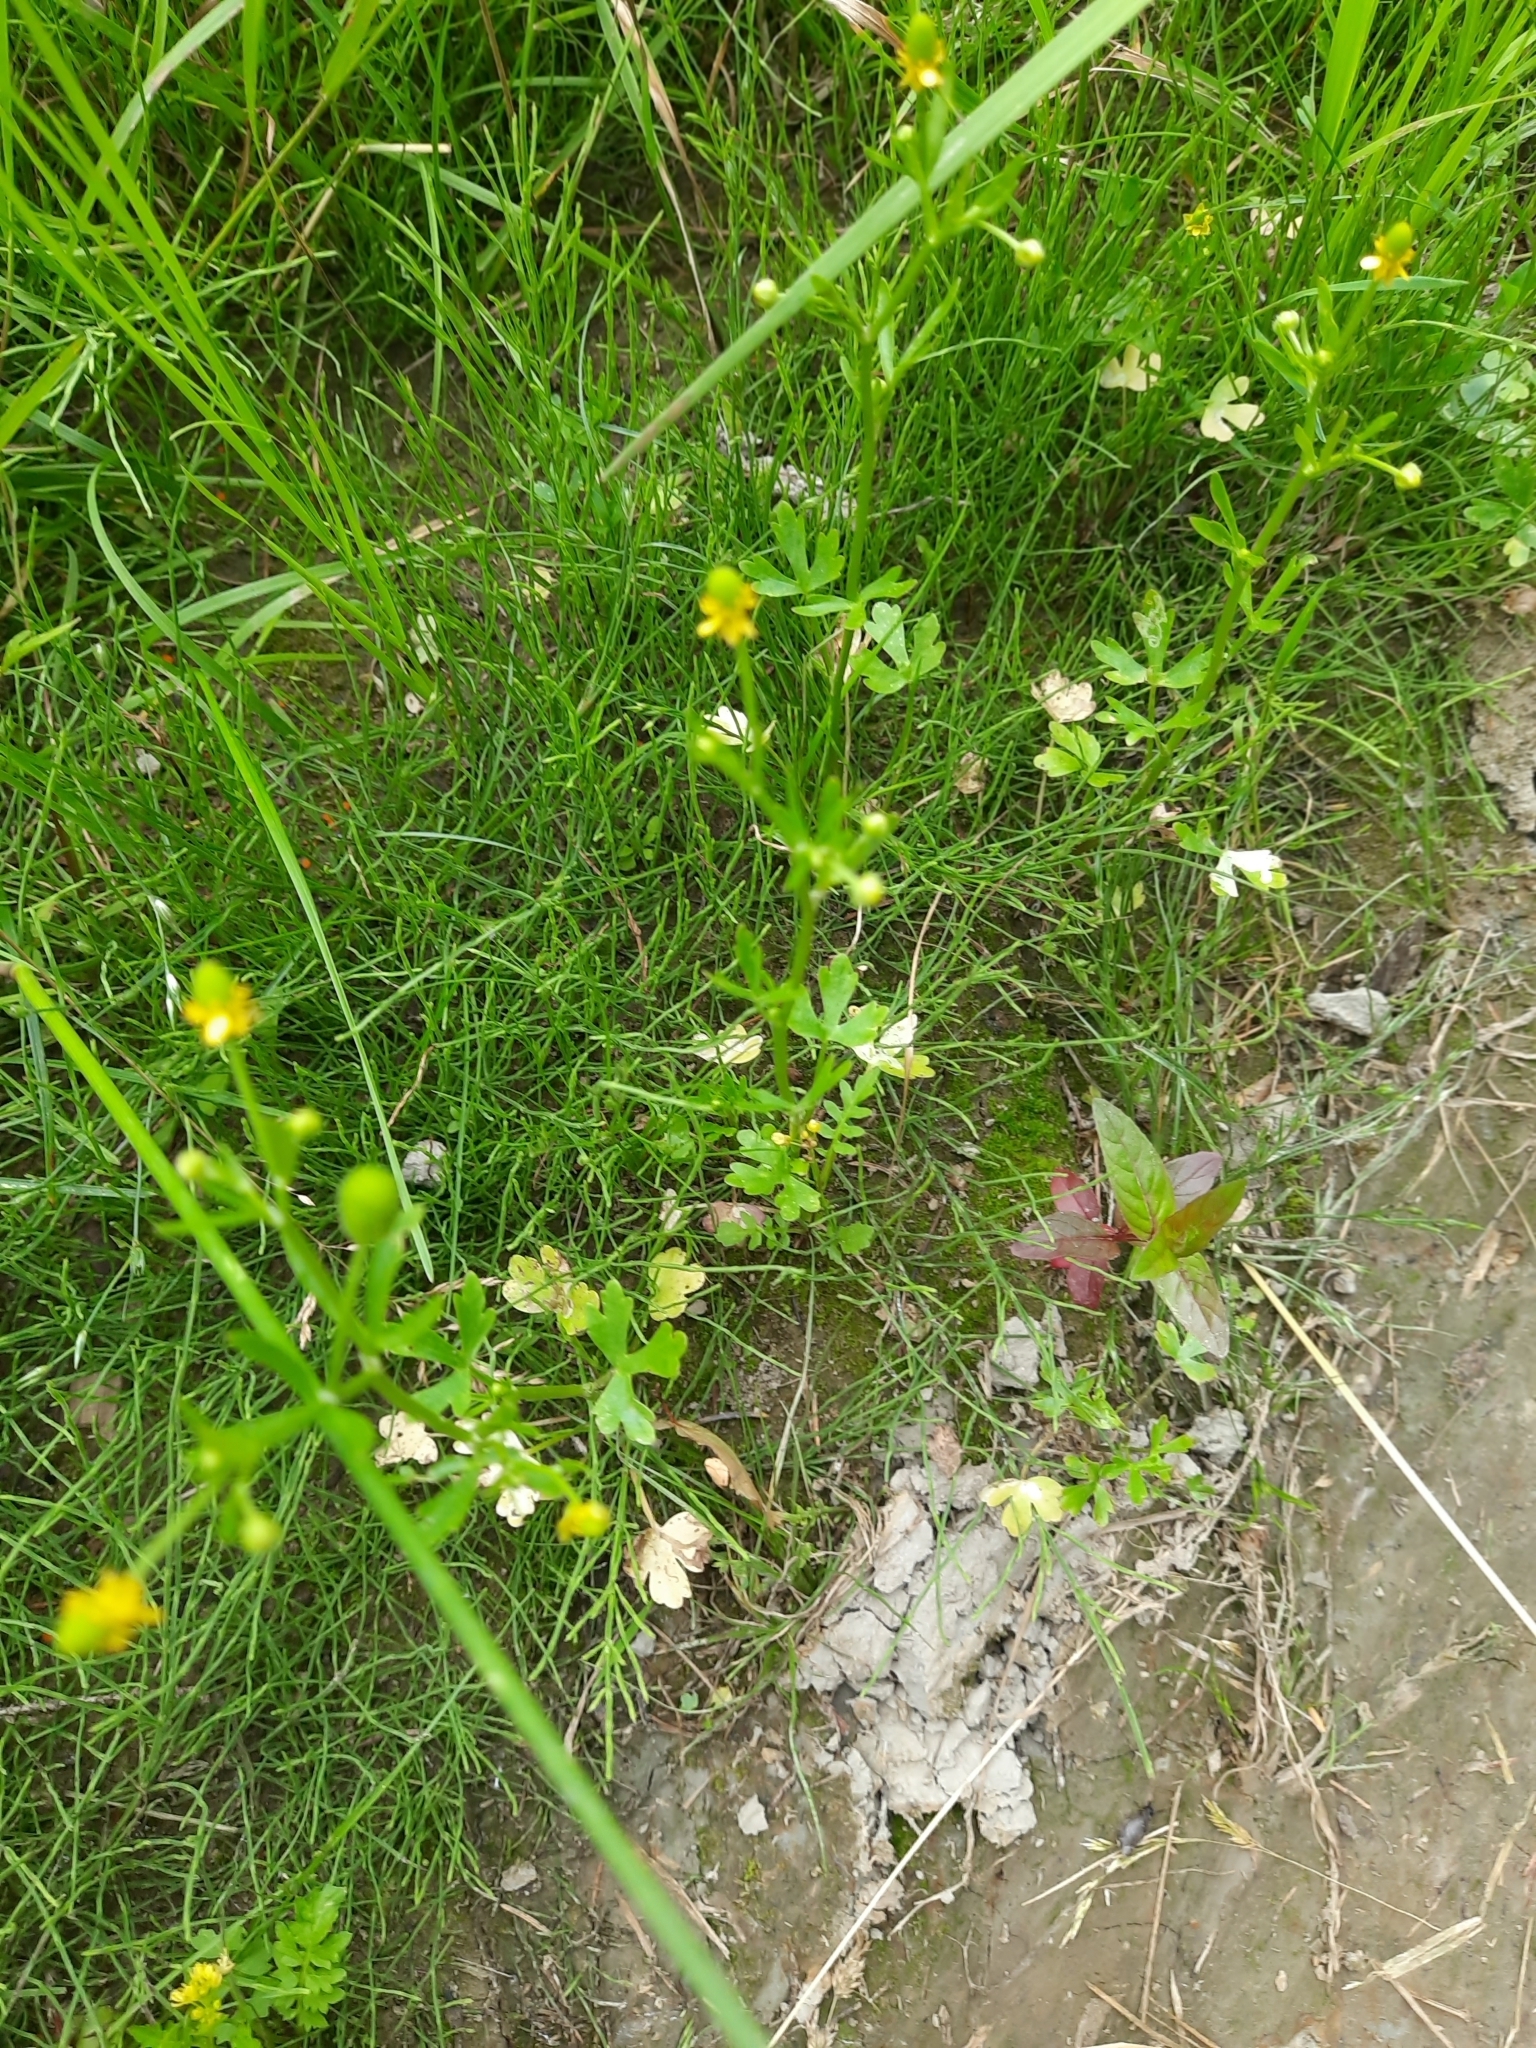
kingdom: Plantae
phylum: Tracheophyta
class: Magnoliopsida
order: Ranunculales
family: Ranunculaceae
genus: Ranunculus
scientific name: Ranunculus sceleratus
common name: Celery-leaved buttercup
